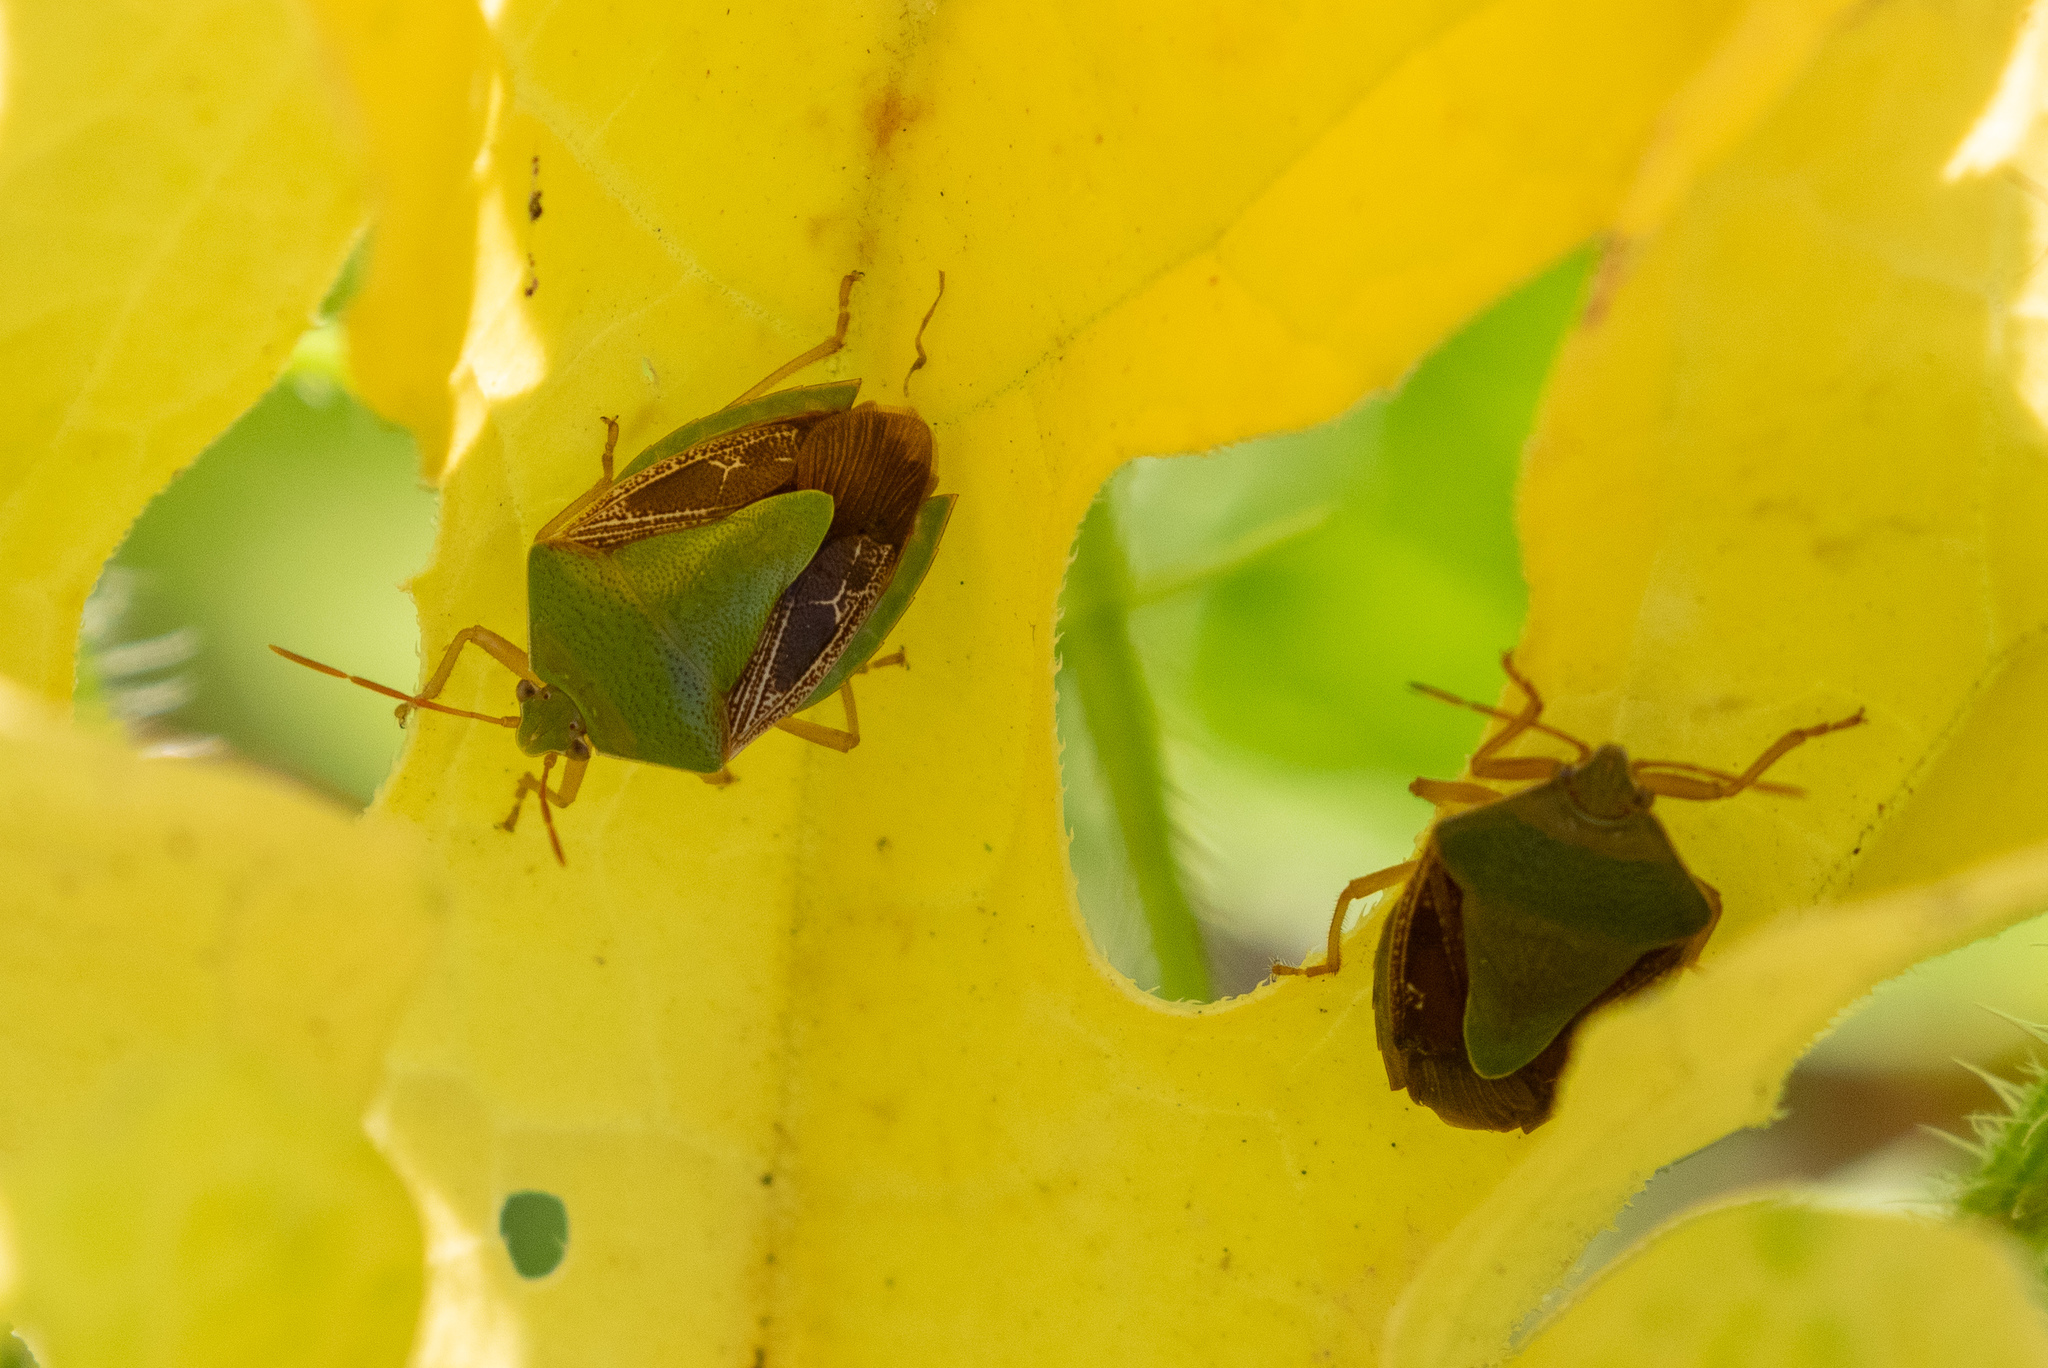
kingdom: Animalia
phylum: Arthropoda
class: Insecta
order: Hemiptera
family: Pentatomidae
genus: Edessa
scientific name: Edessa meditabunda
